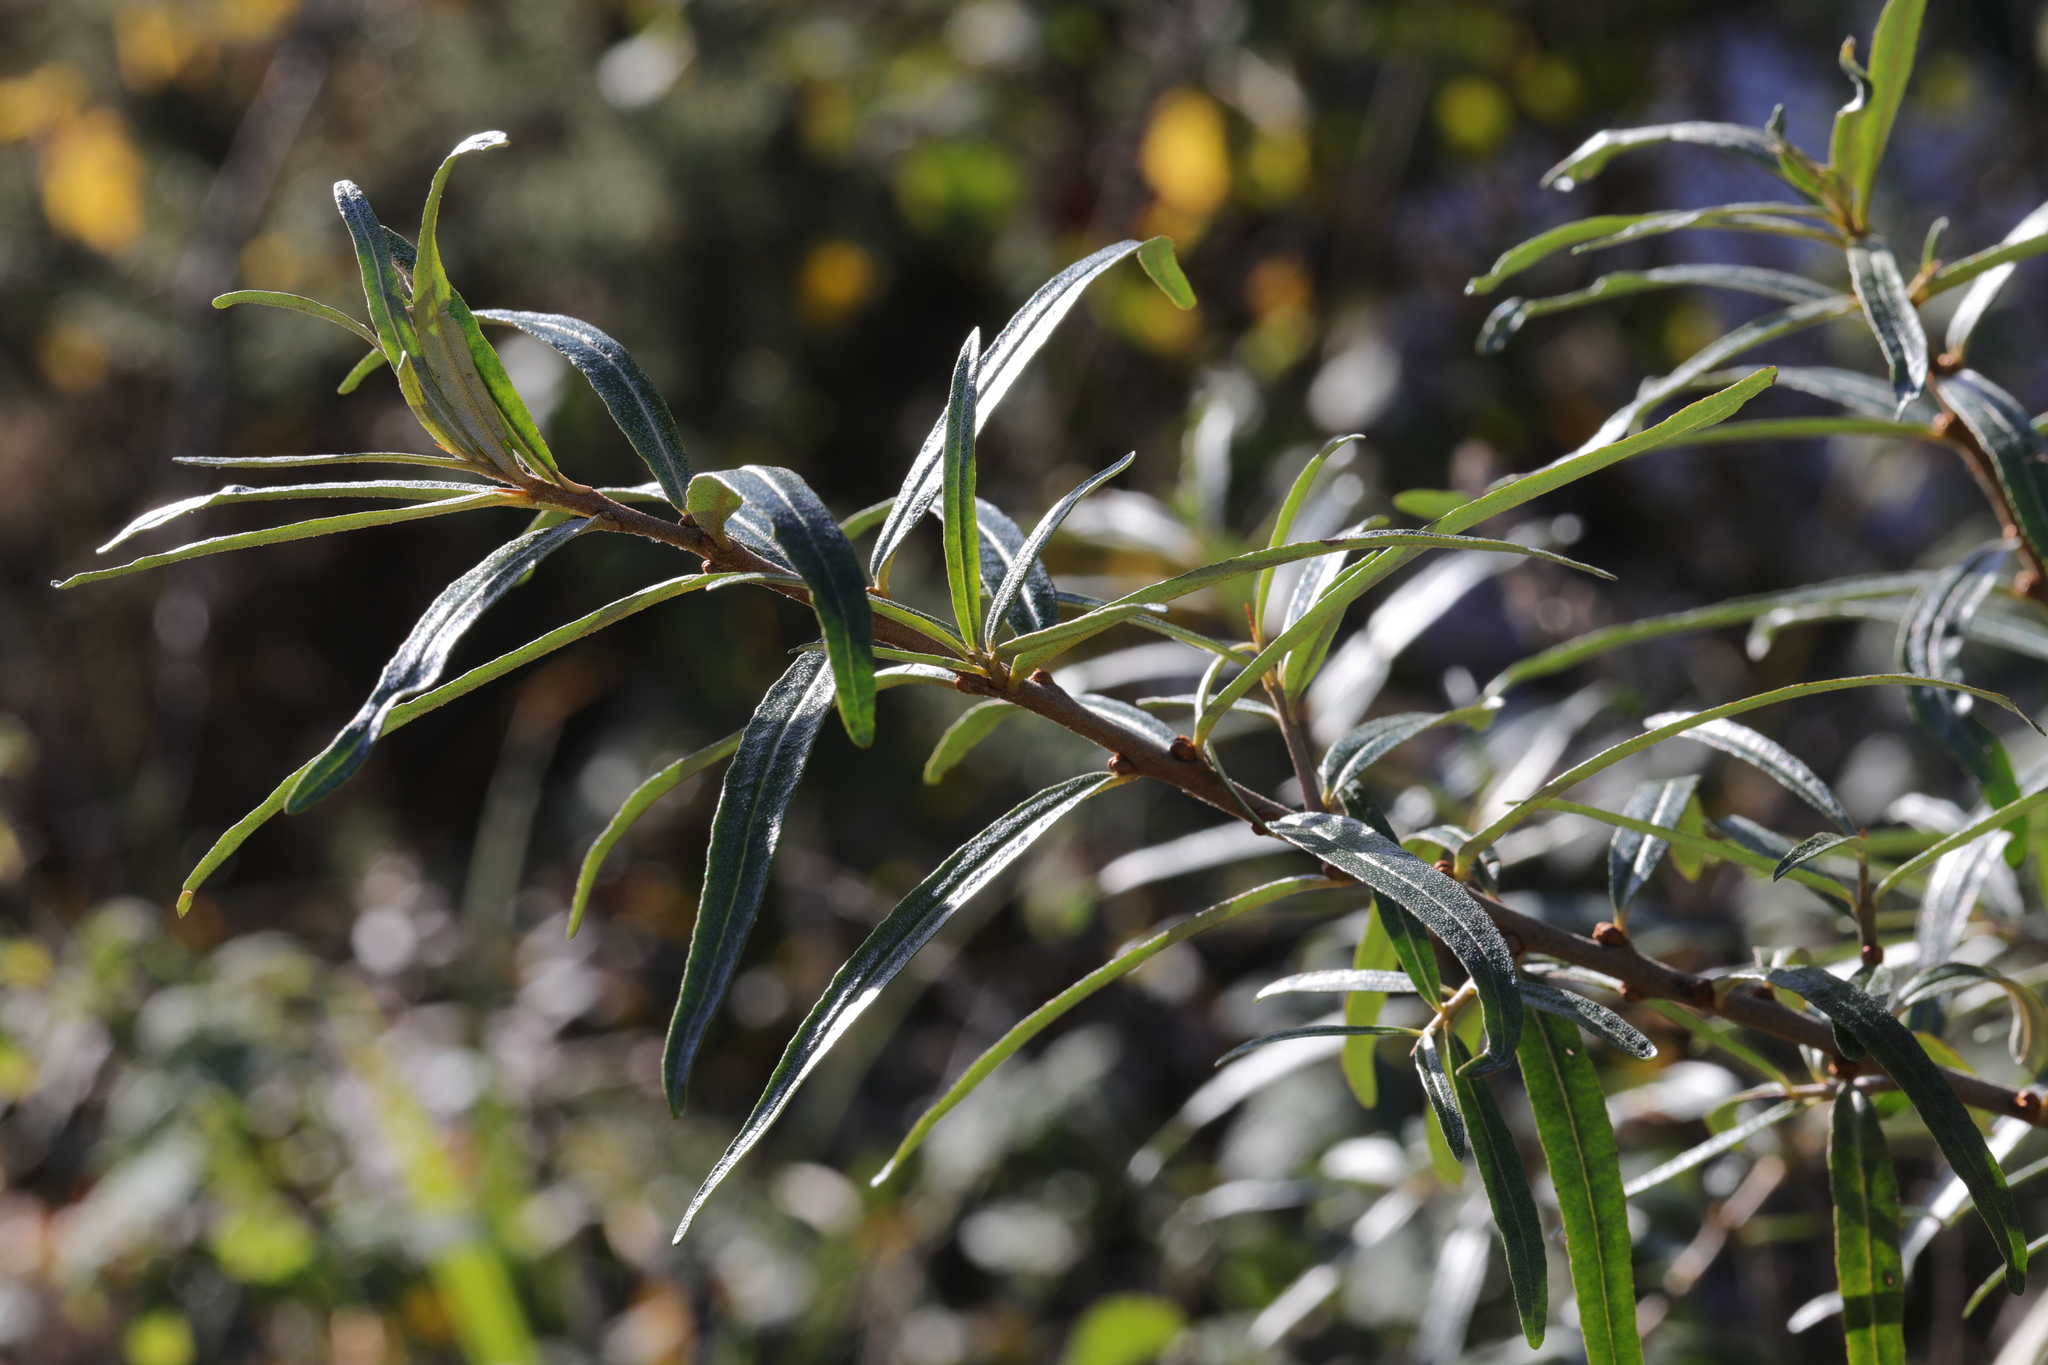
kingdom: Plantae
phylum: Tracheophyta
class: Magnoliopsida
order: Rosales
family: Elaeagnaceae
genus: Hippophae
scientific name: Hippophae rhamnoides
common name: Sea-buckthorn
